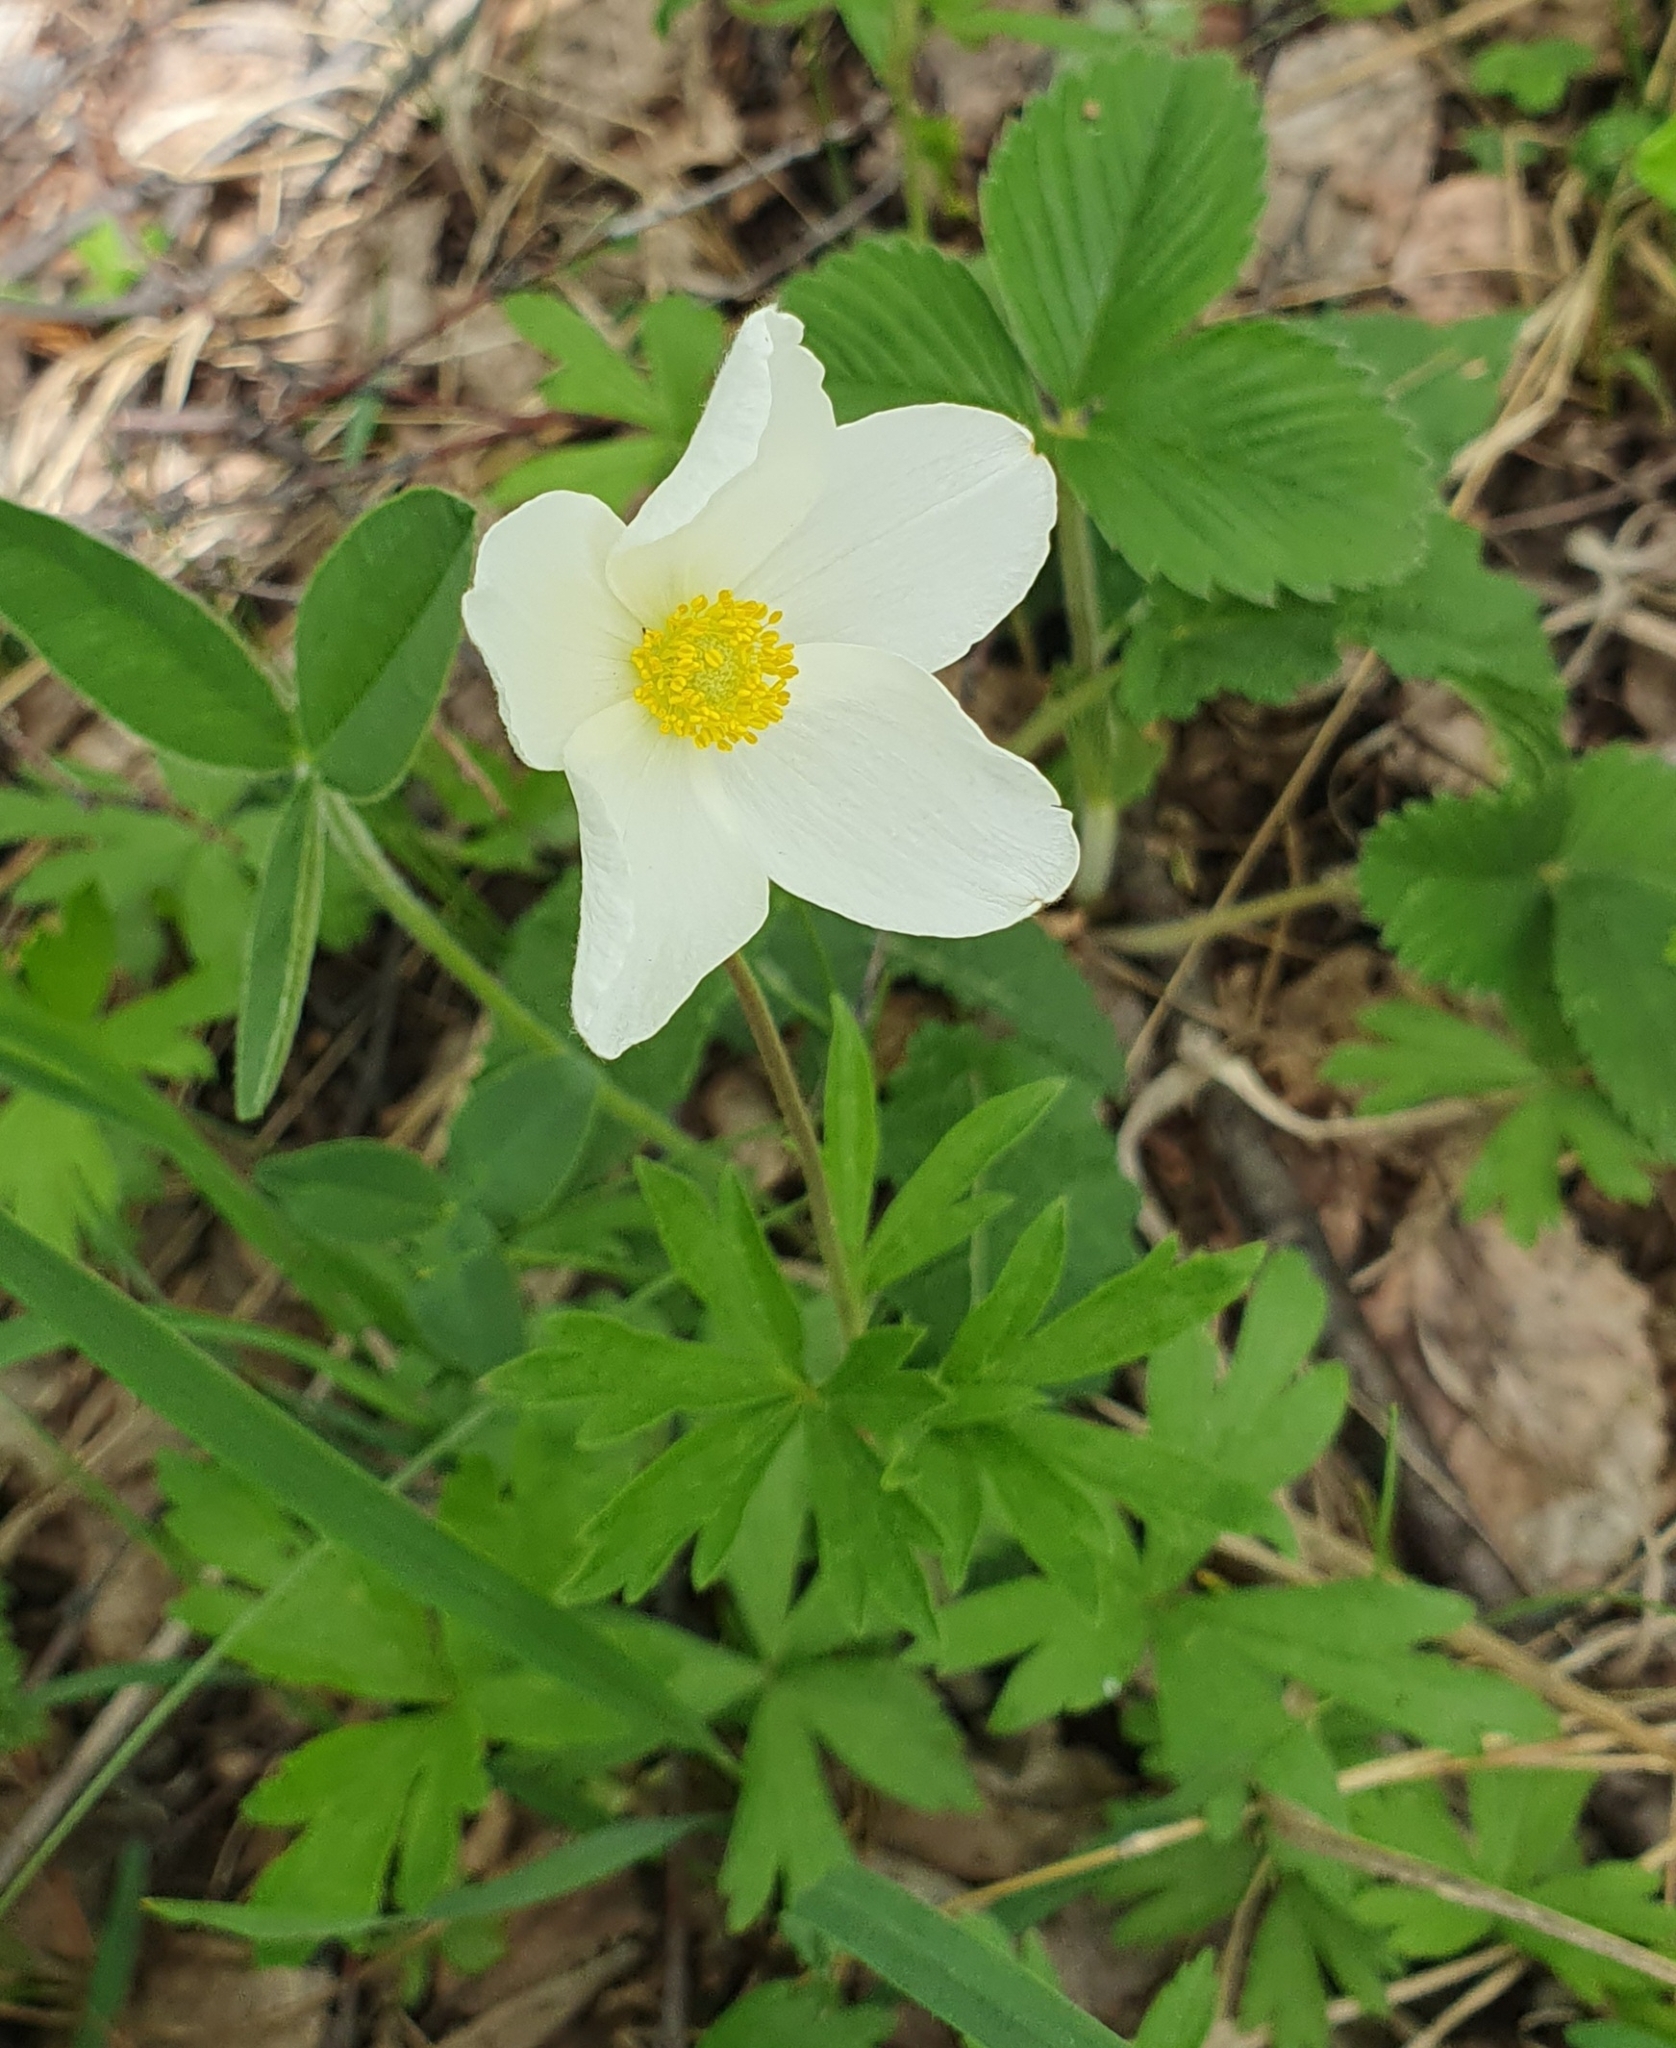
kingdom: Plantae
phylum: Tracheophyta
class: Magnoliopsida
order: Ranunculales
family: Ranunculaceae
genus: Anemone
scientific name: Anemone sylvestris
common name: Snowdrop anemone
